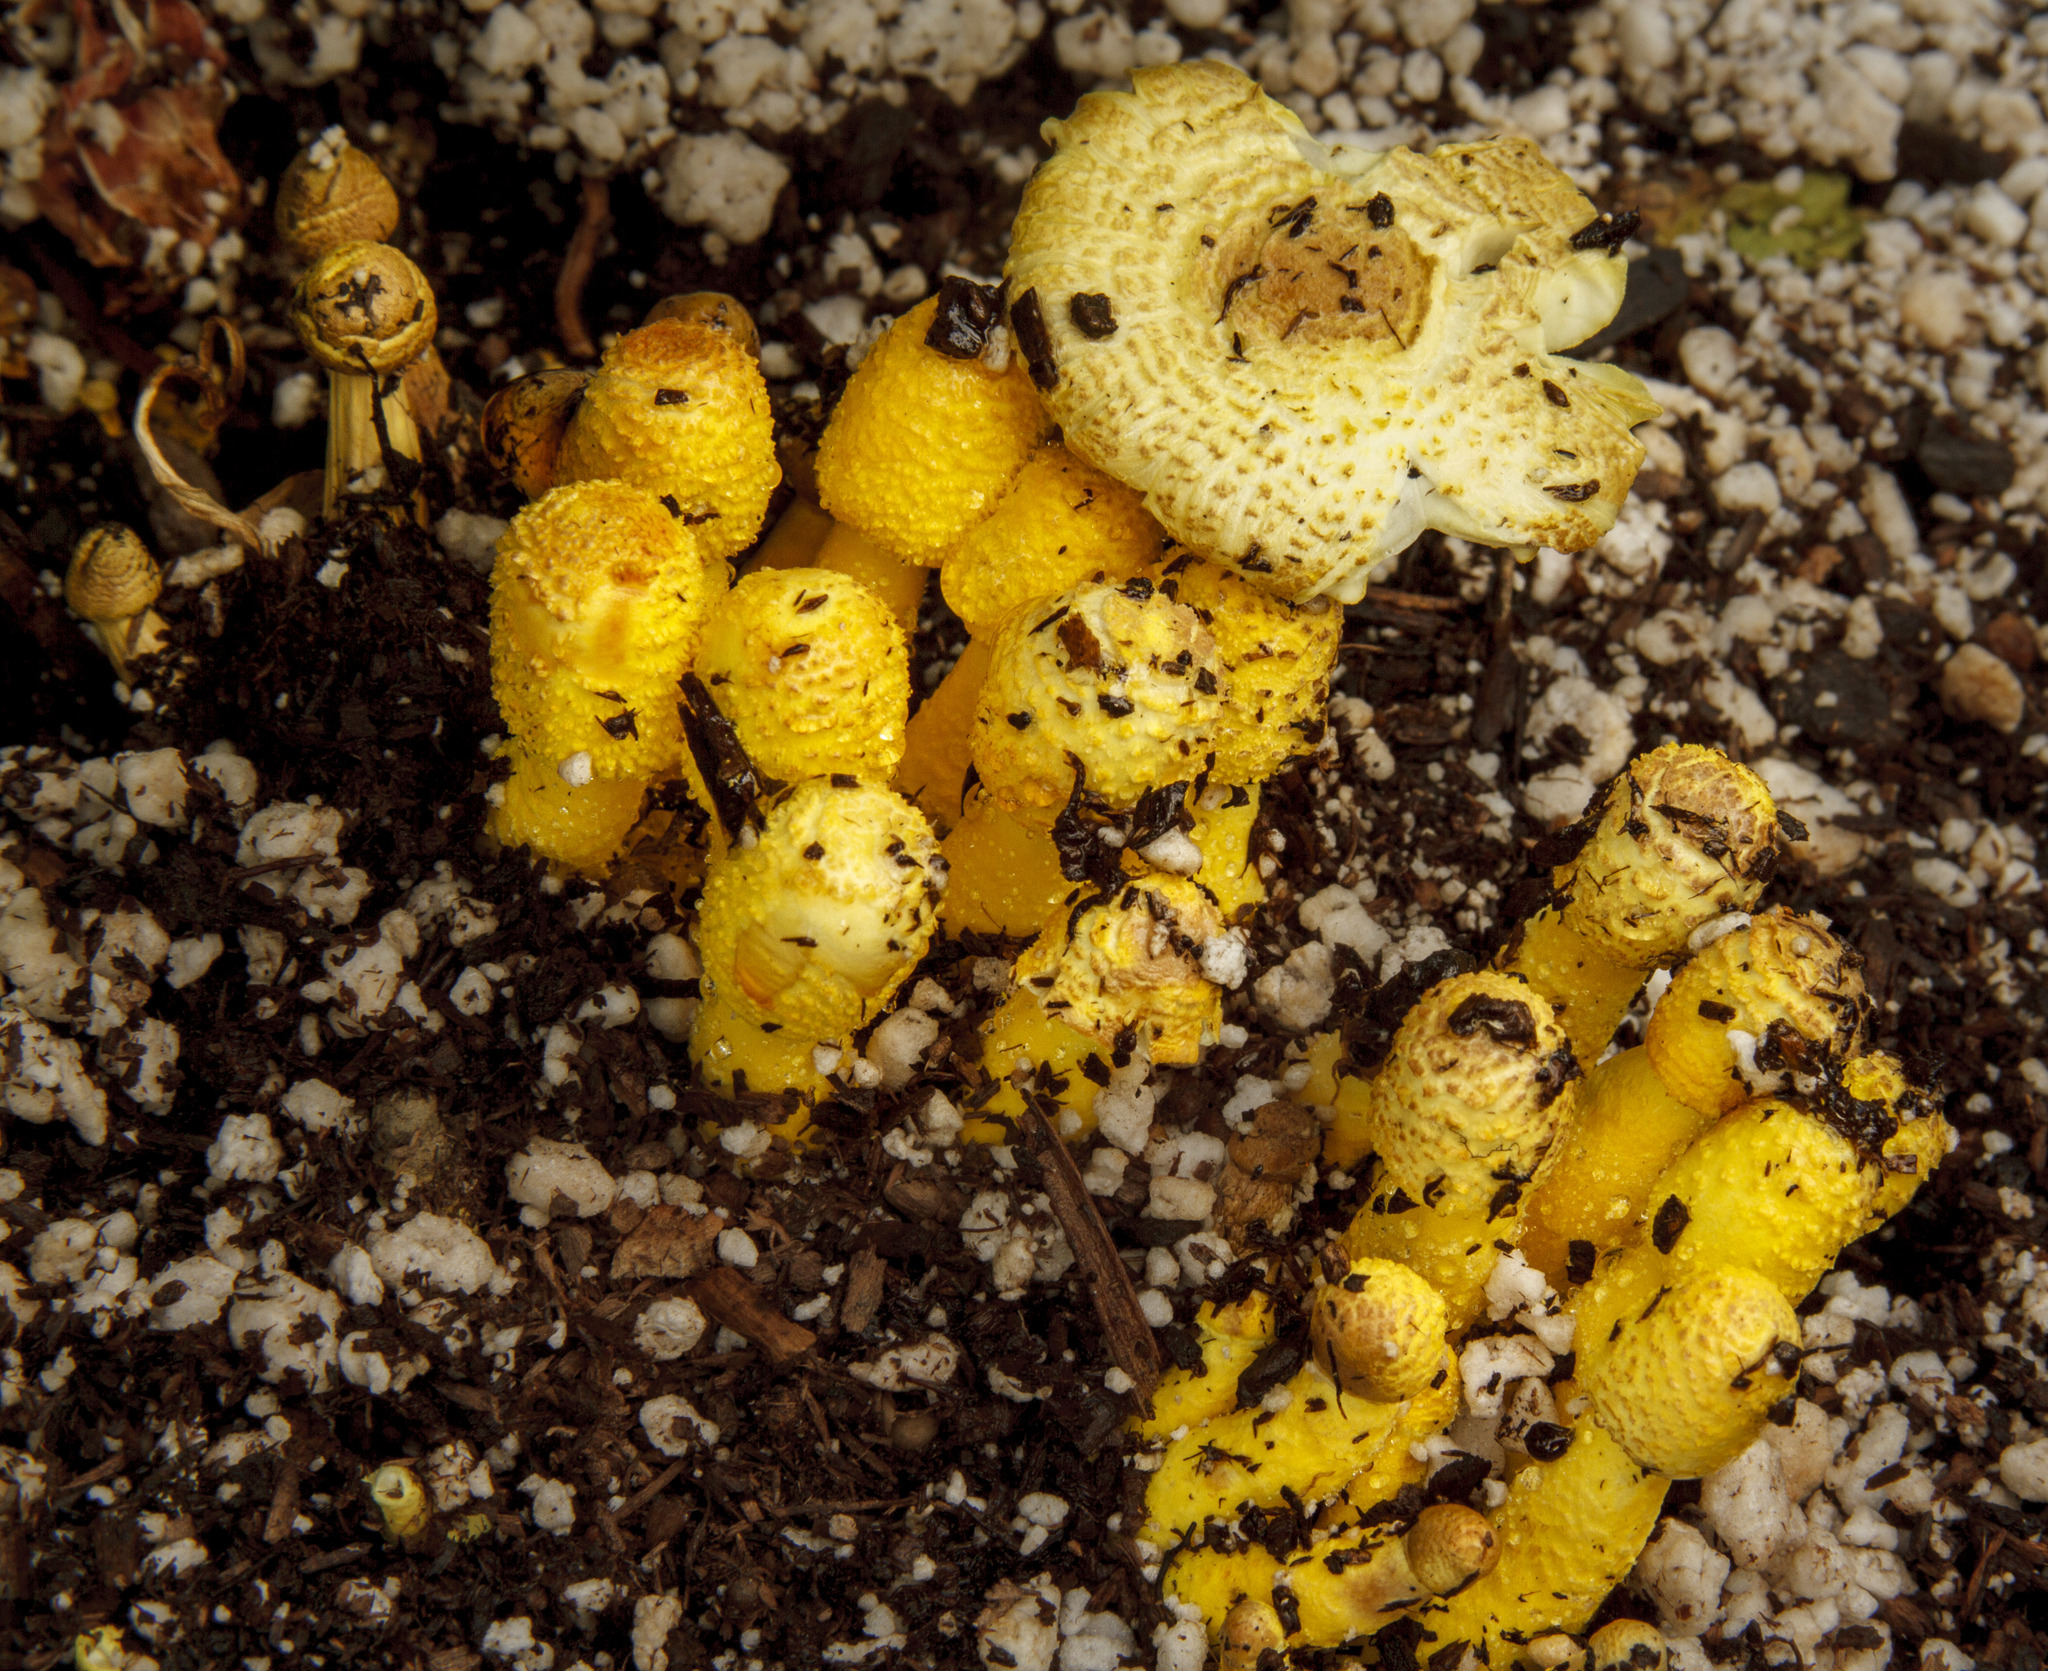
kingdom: Fungi
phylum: Basidiomycota
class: Agaricomycetes
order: Agaricales
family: Agaricaceae
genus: Leucocoprinus
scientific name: Leucocoprinus birnbaumii
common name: Plantpot dapperling
